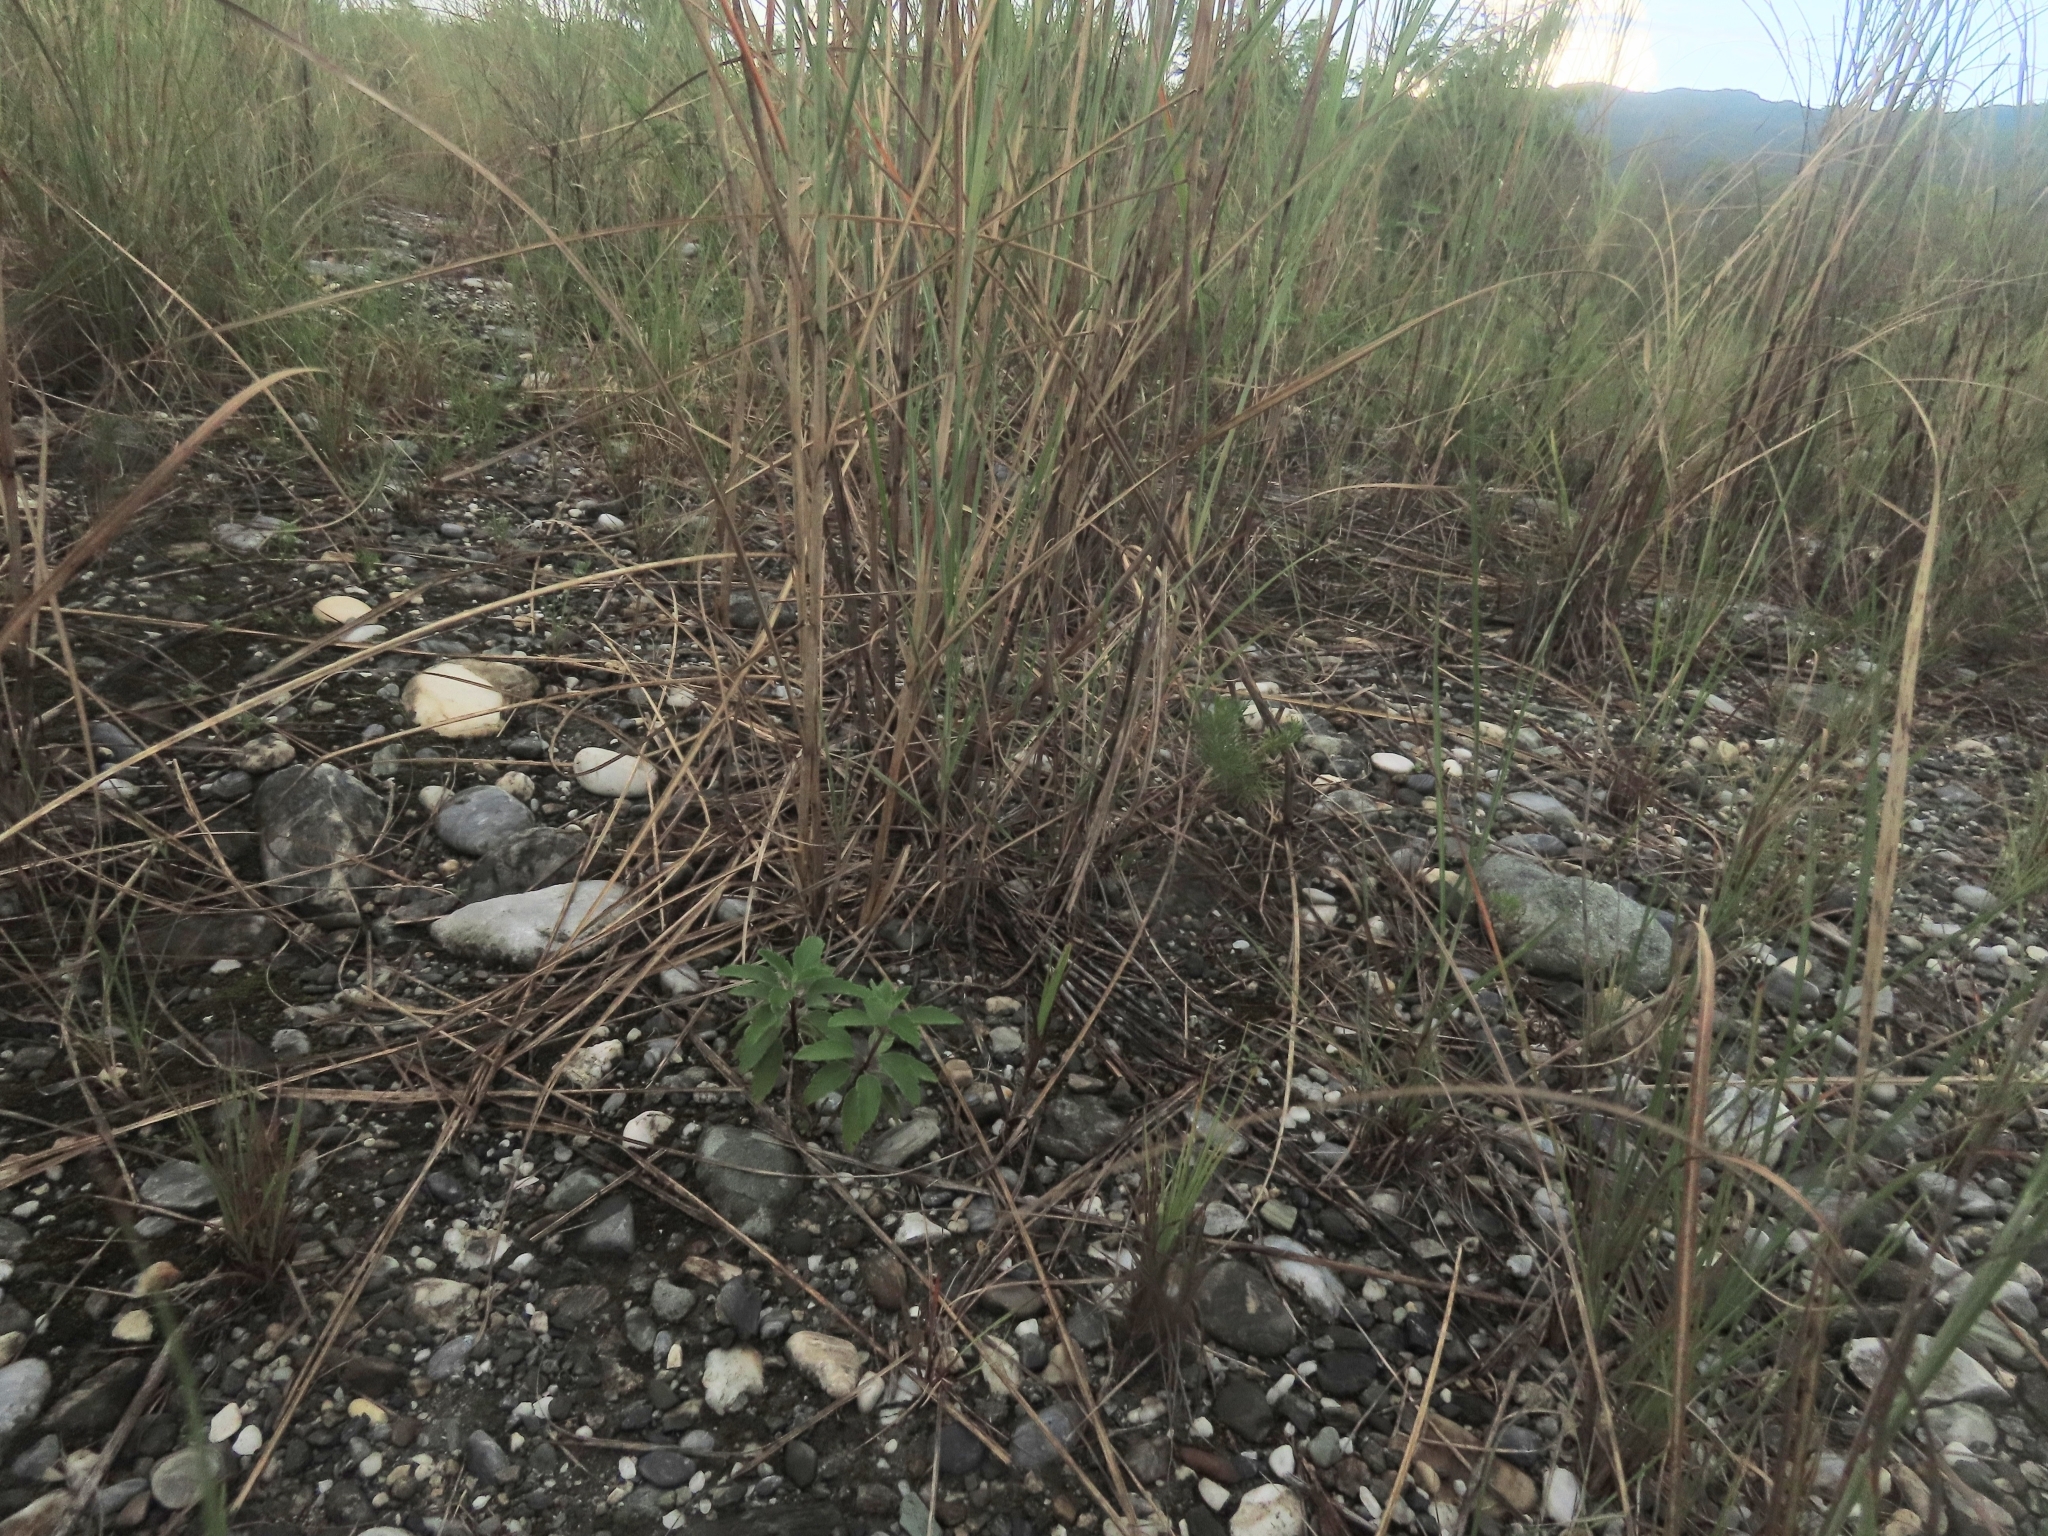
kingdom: Plantae
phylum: Tracheophyta
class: Magnoliopsida
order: Lamiales
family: Lamiaceae
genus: Caryopteris
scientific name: Caryopteris incana
